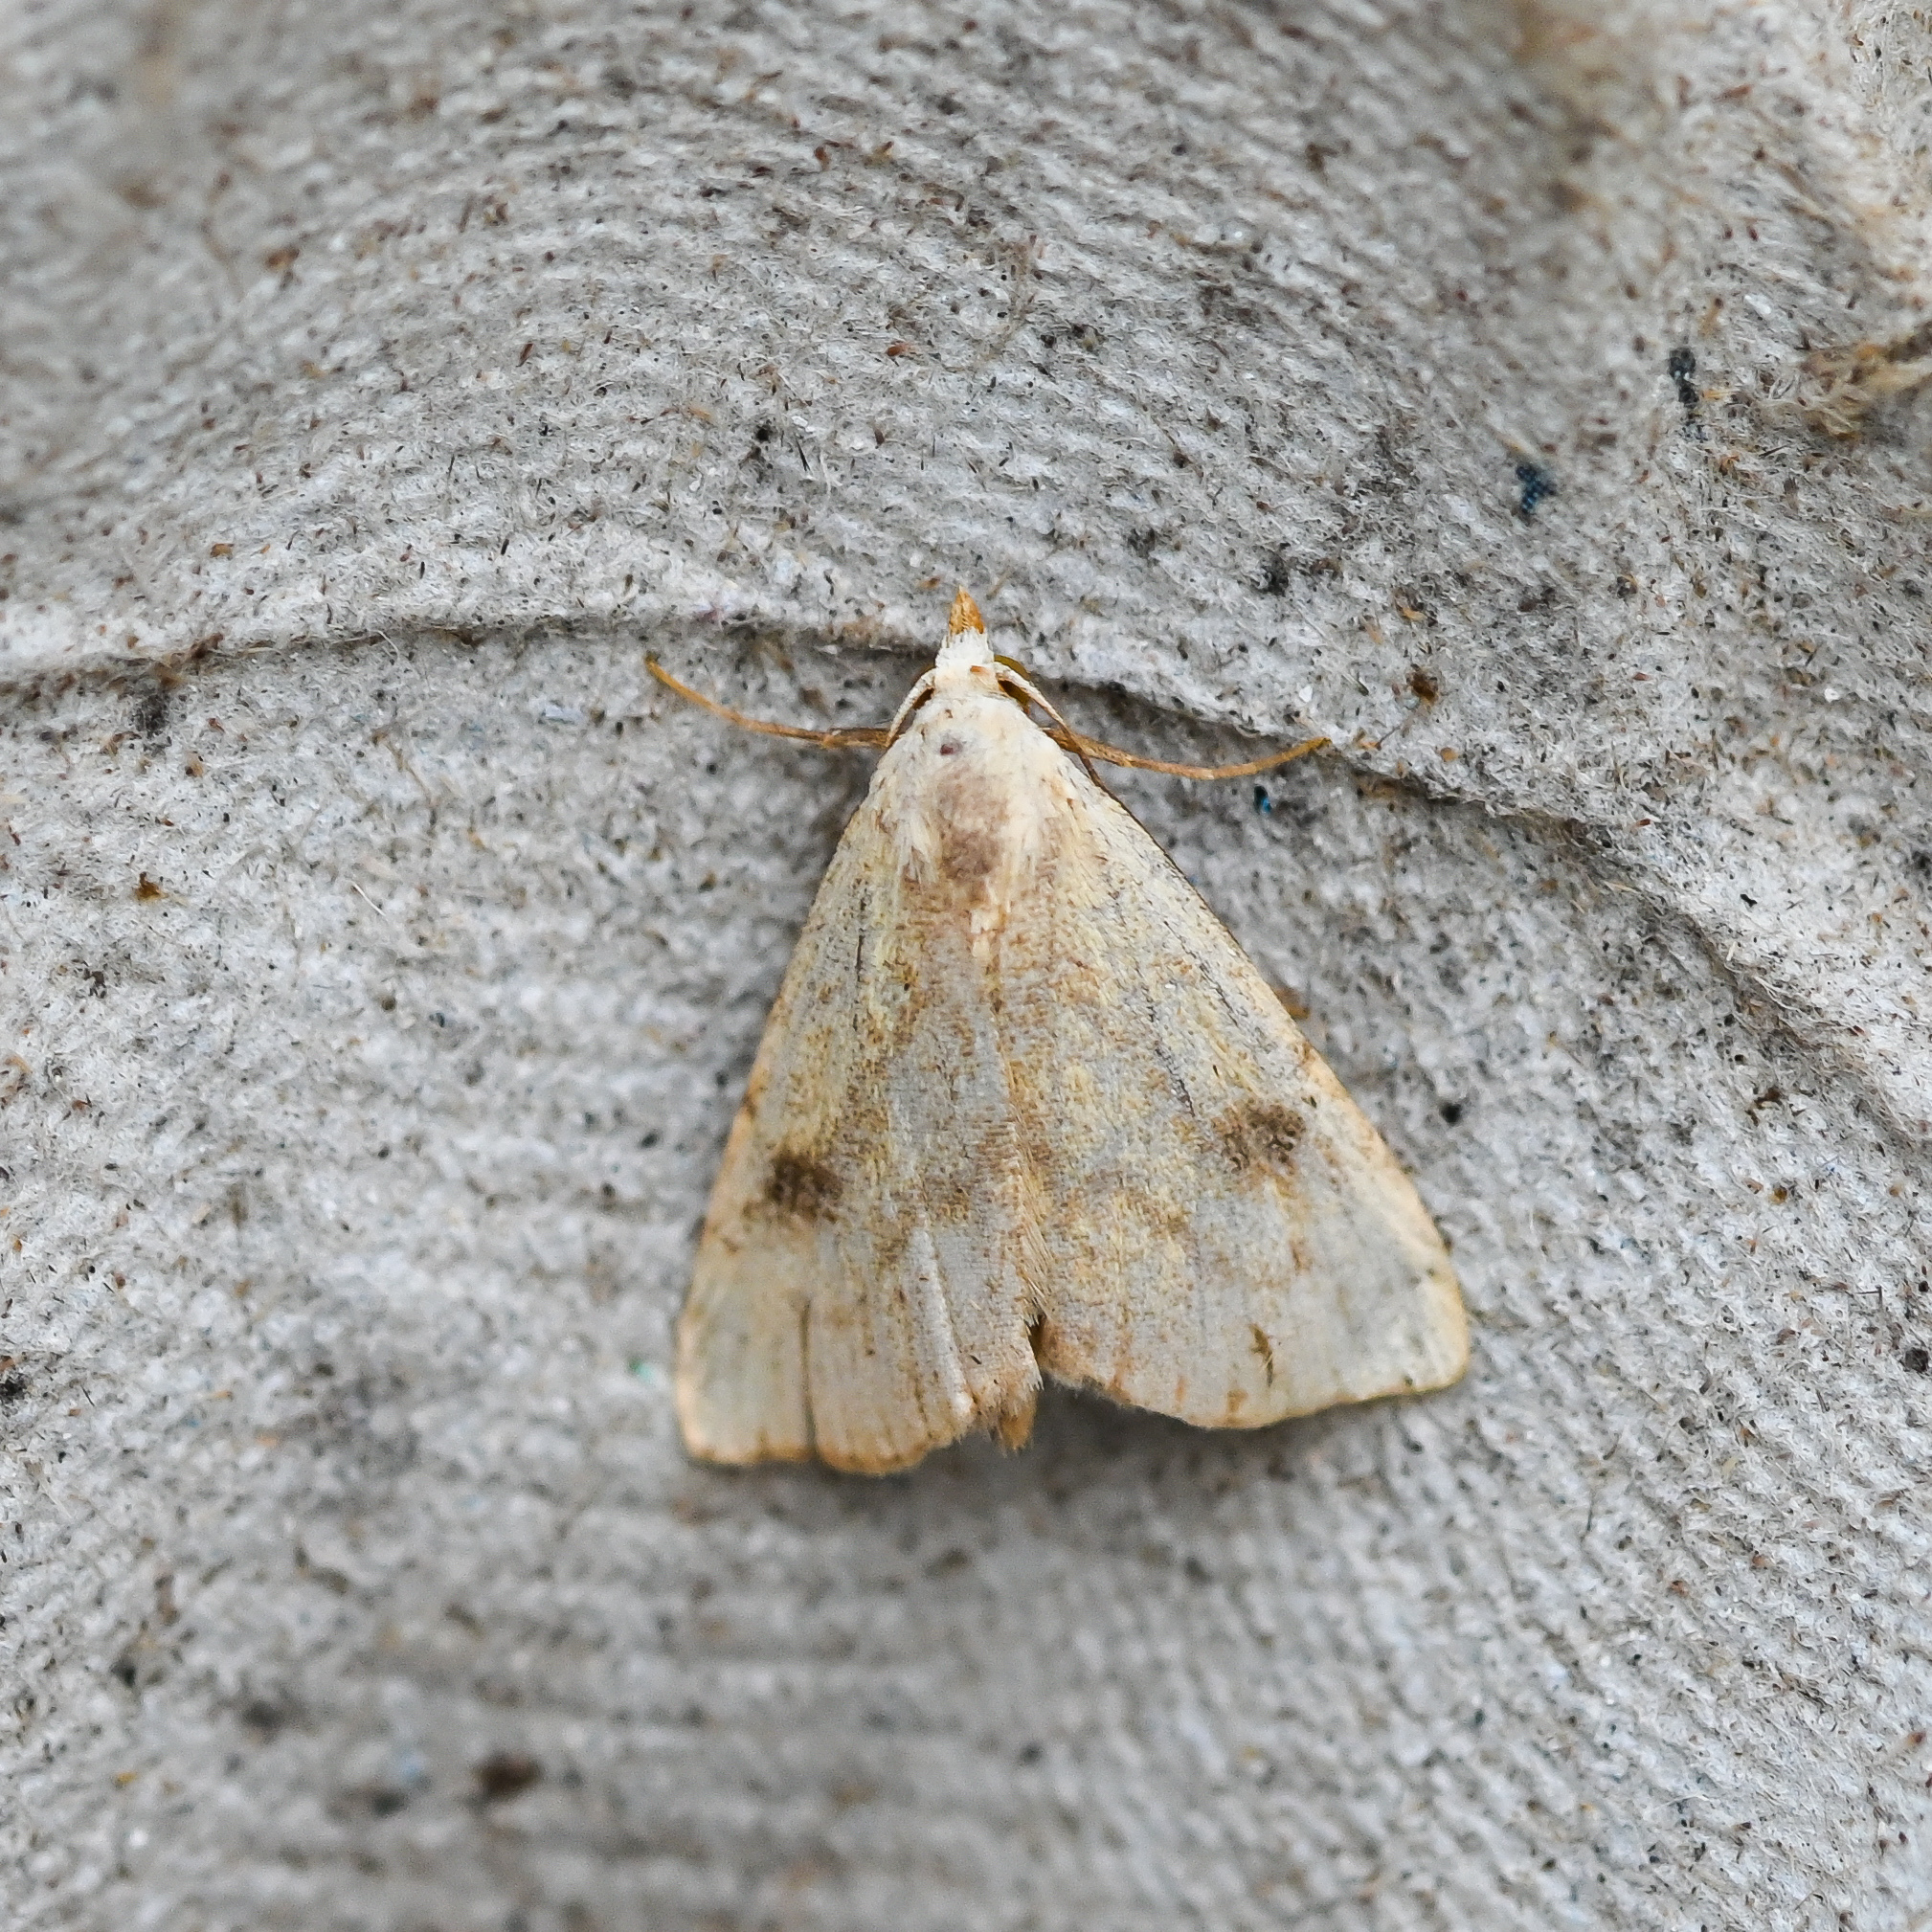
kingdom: Animalia
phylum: Arthropoda
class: Insecta
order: Lepidoptera
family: Erebidae
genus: Rivula
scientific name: Rivula sericealis
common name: Straw dot
